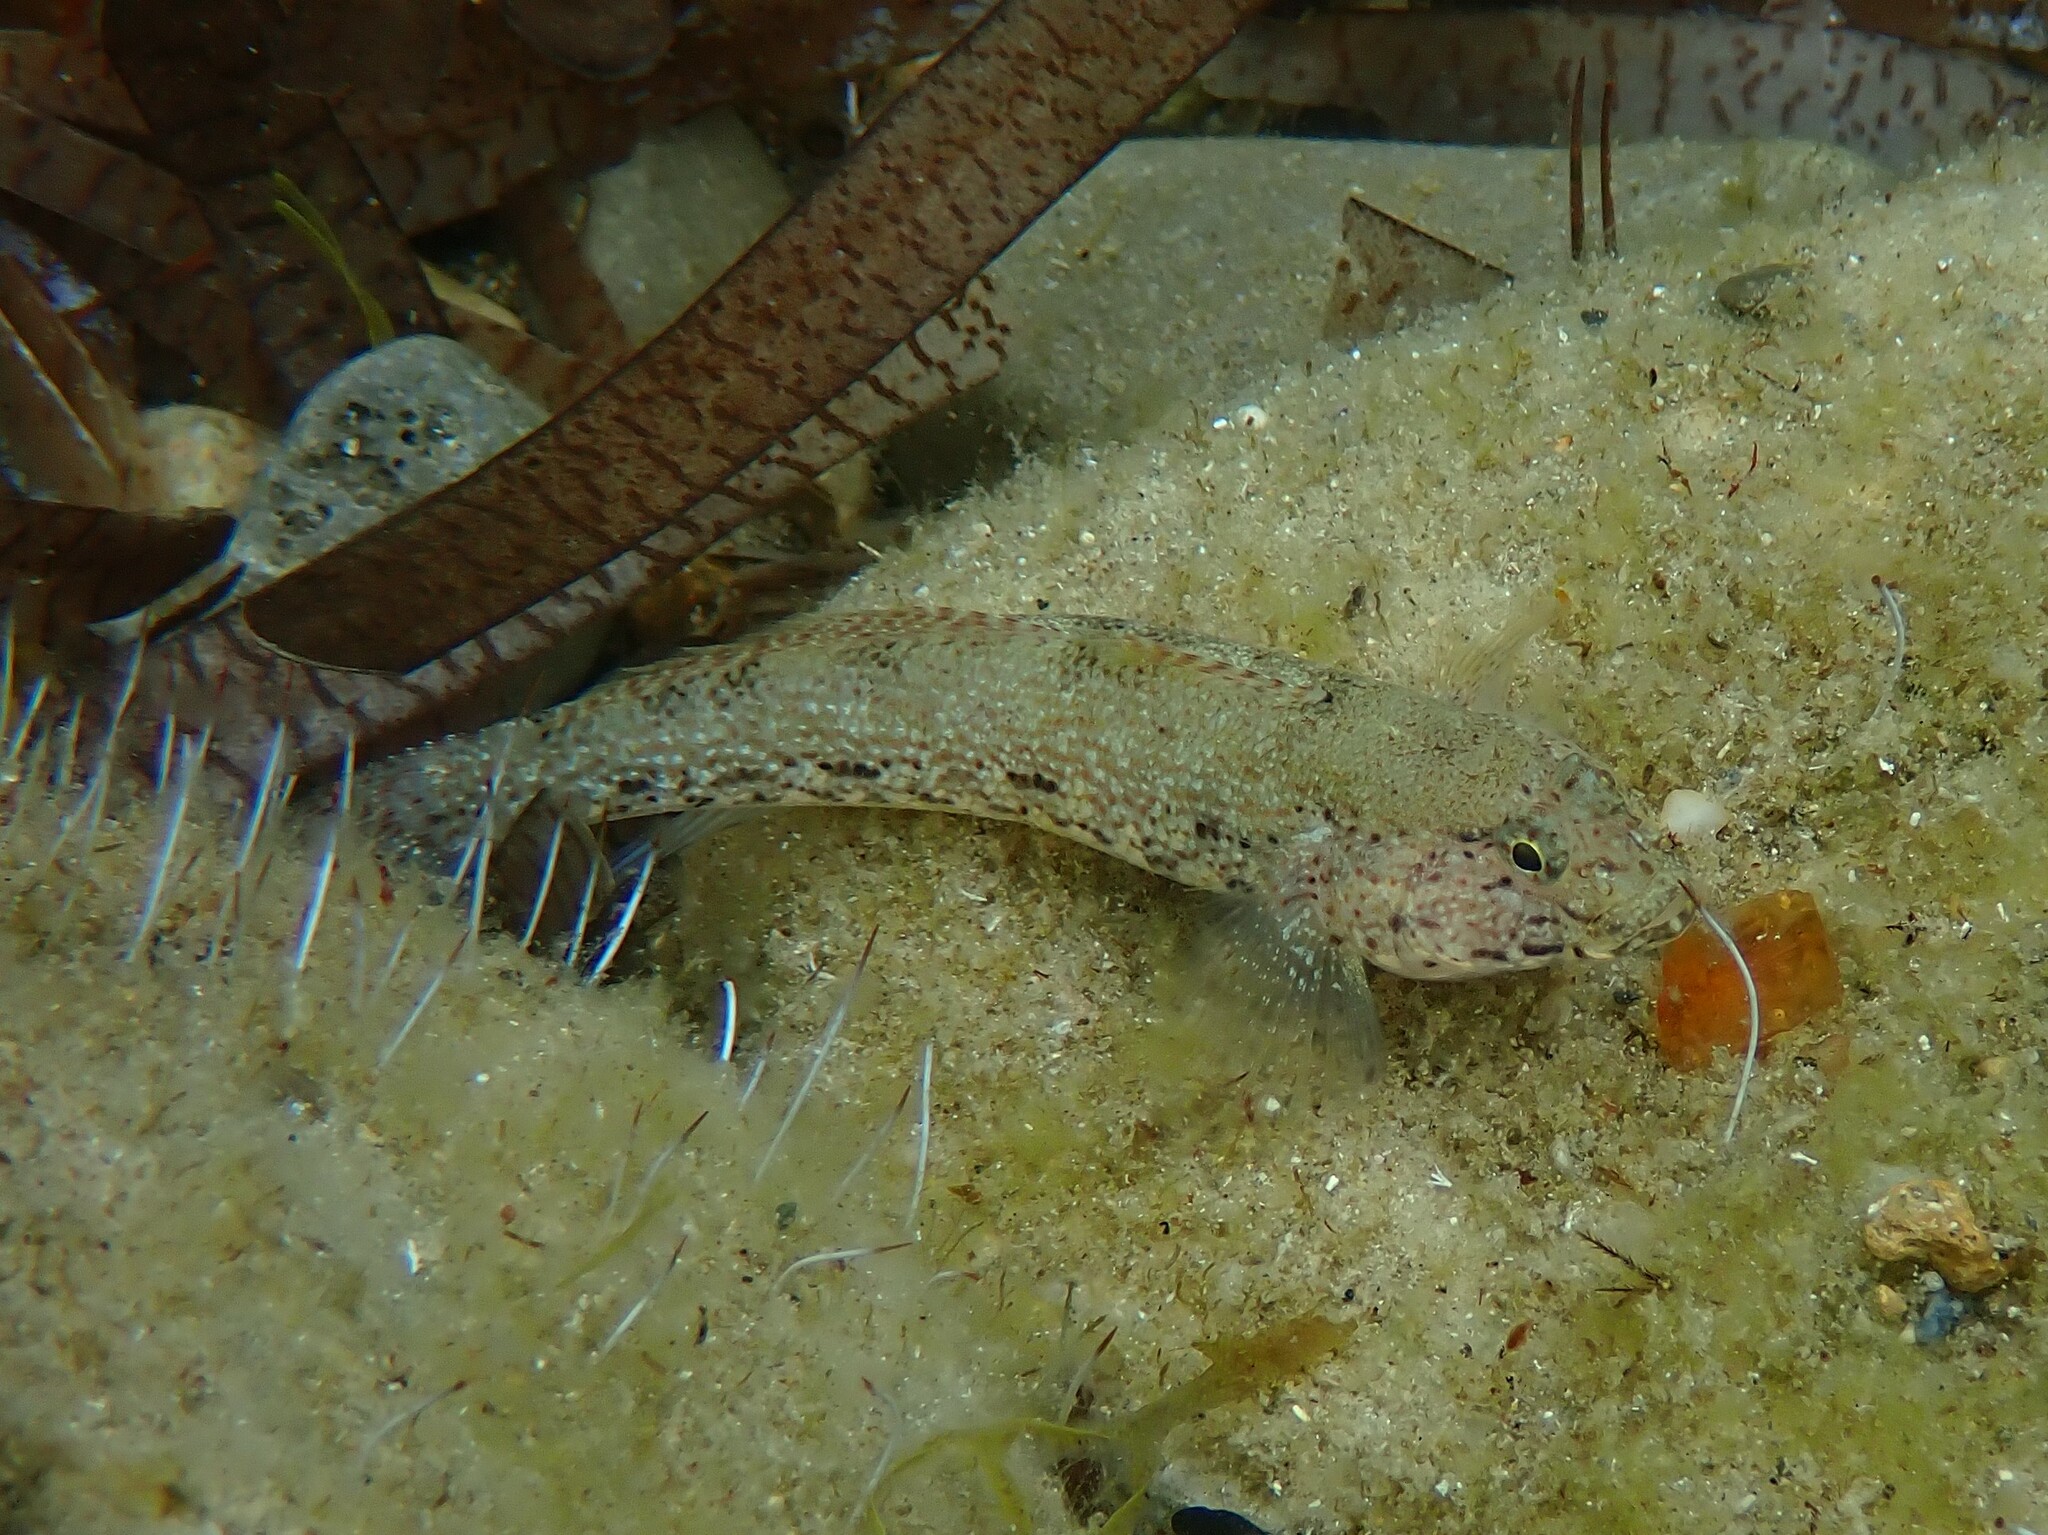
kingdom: Animalia
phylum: Chordata
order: Perciformes
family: Gobiidae
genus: Gobius
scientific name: Gobius incognitus
